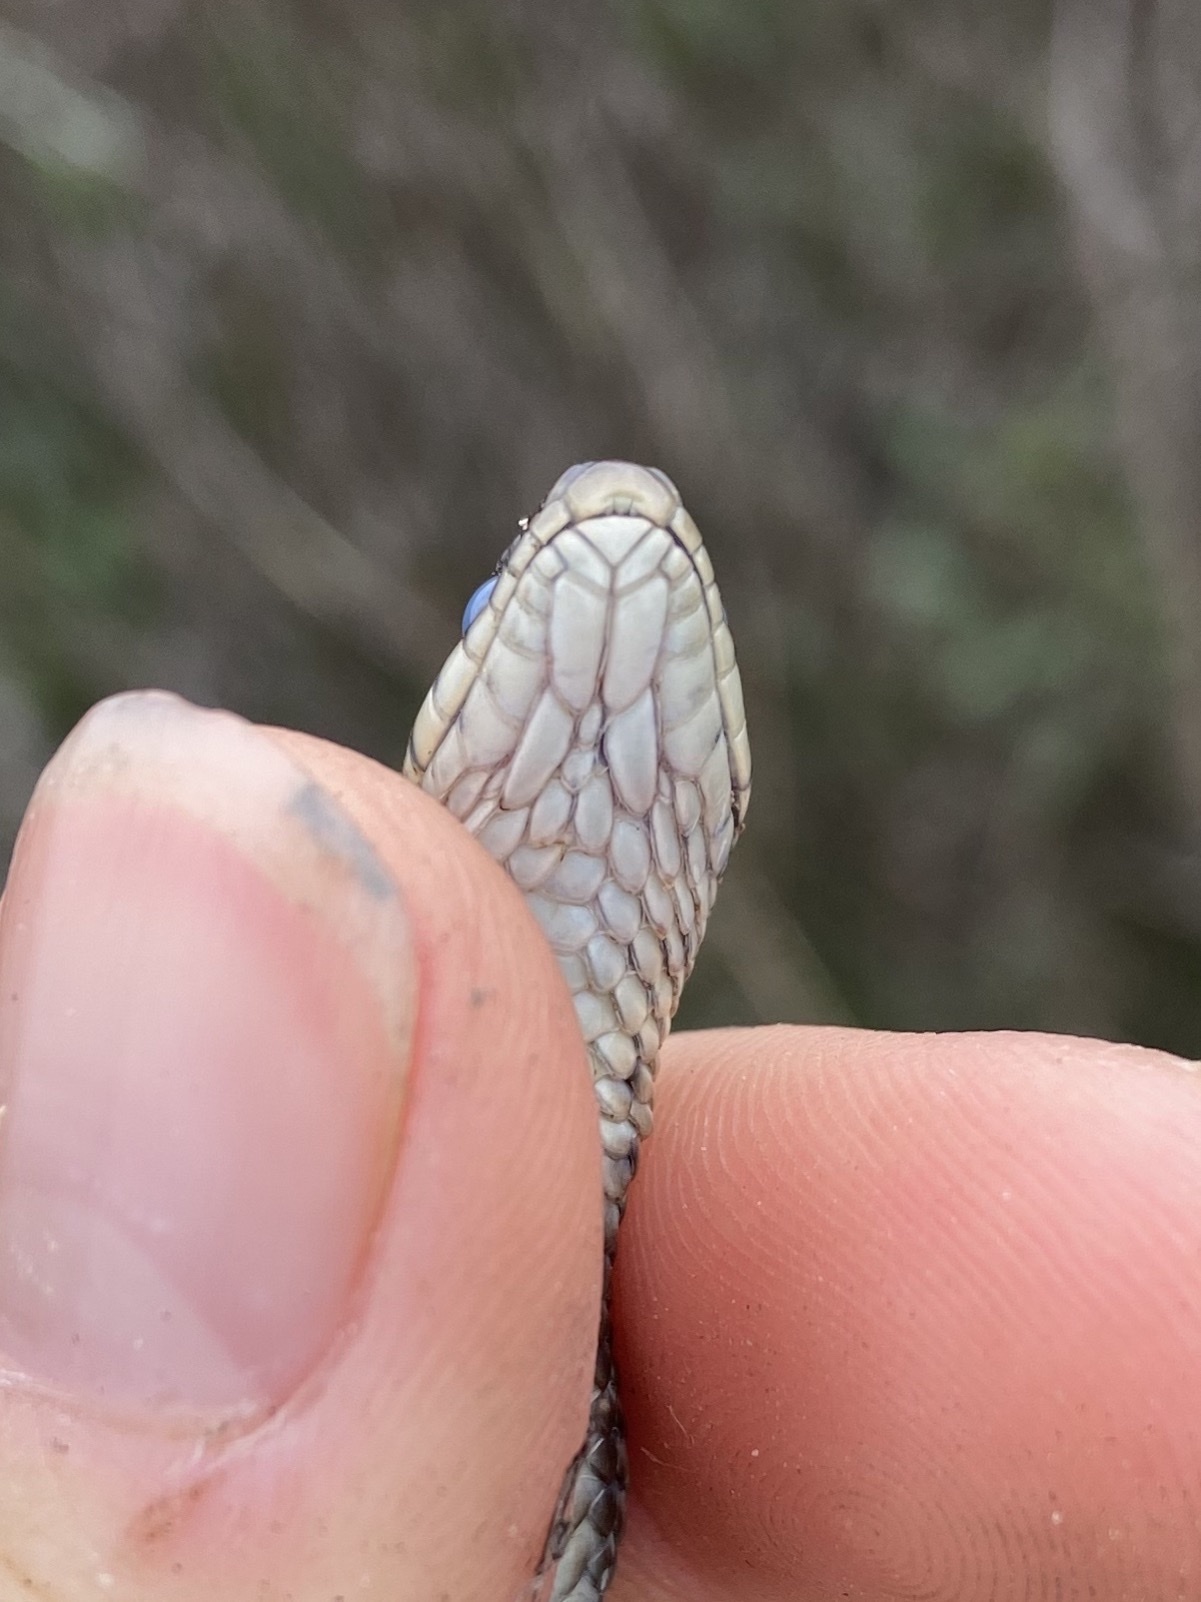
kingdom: Animalia
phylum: Chordata
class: Squamata
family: Colubridae
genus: Thamnophis
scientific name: Thamnophis elegans
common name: Western terrestrial garter snake
